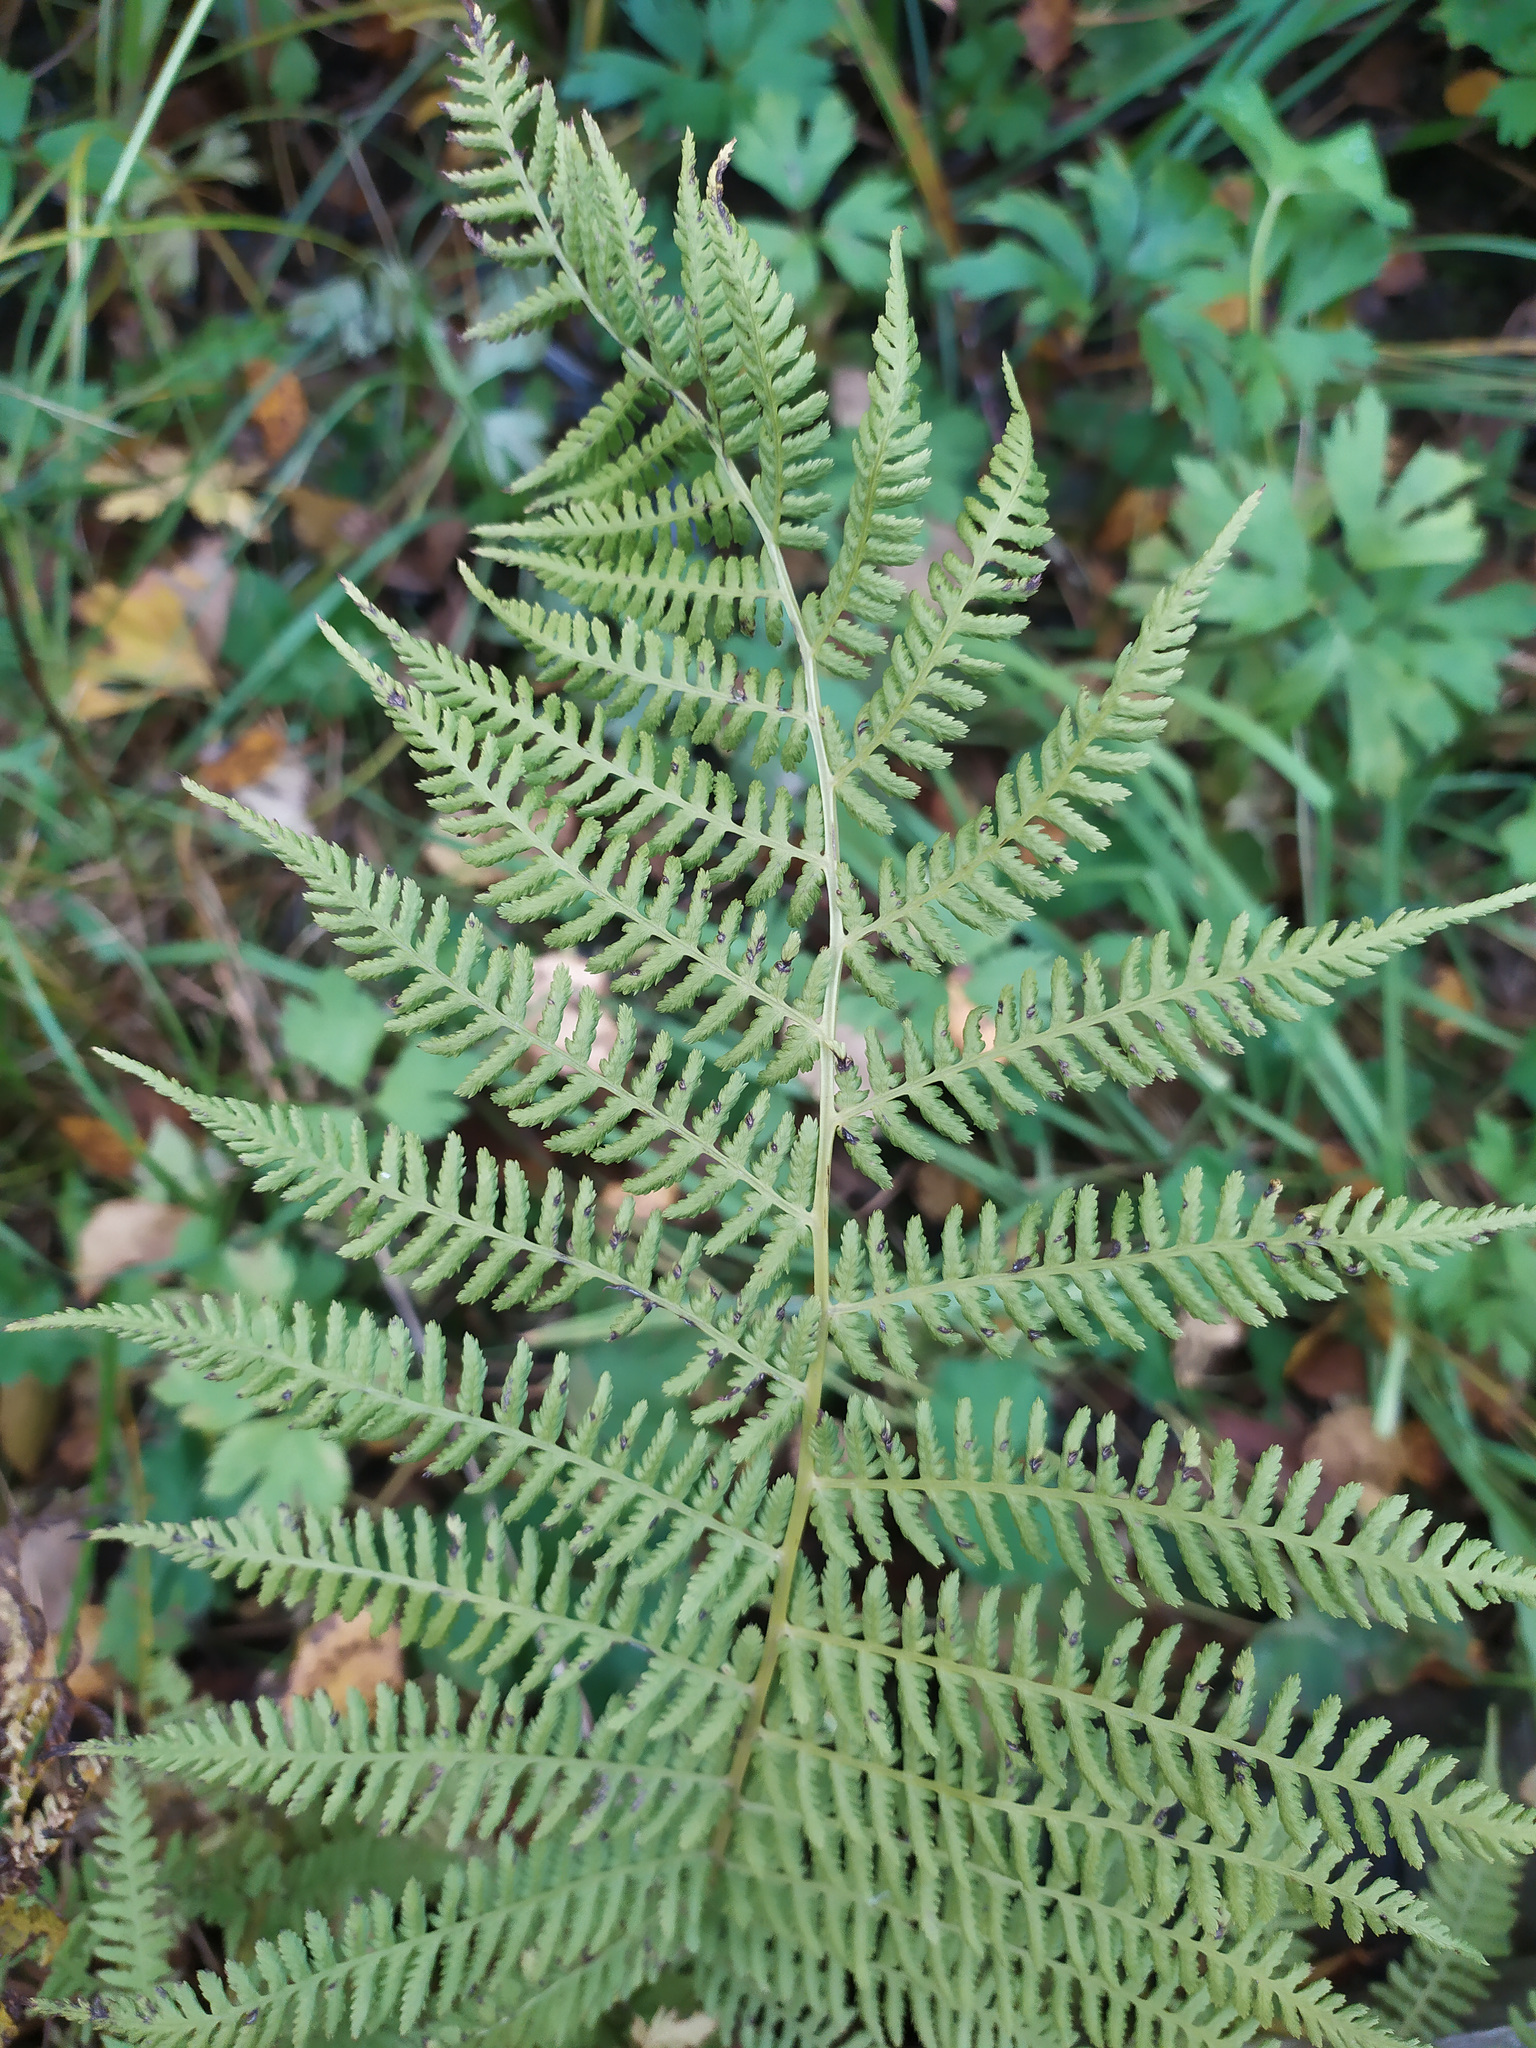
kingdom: Plantae
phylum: Tracheophyta
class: Polypodiopsida
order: Polypodiales
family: Athyriaceae
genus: Athyrium
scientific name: Athyrium filix-femina
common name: Lady fern
